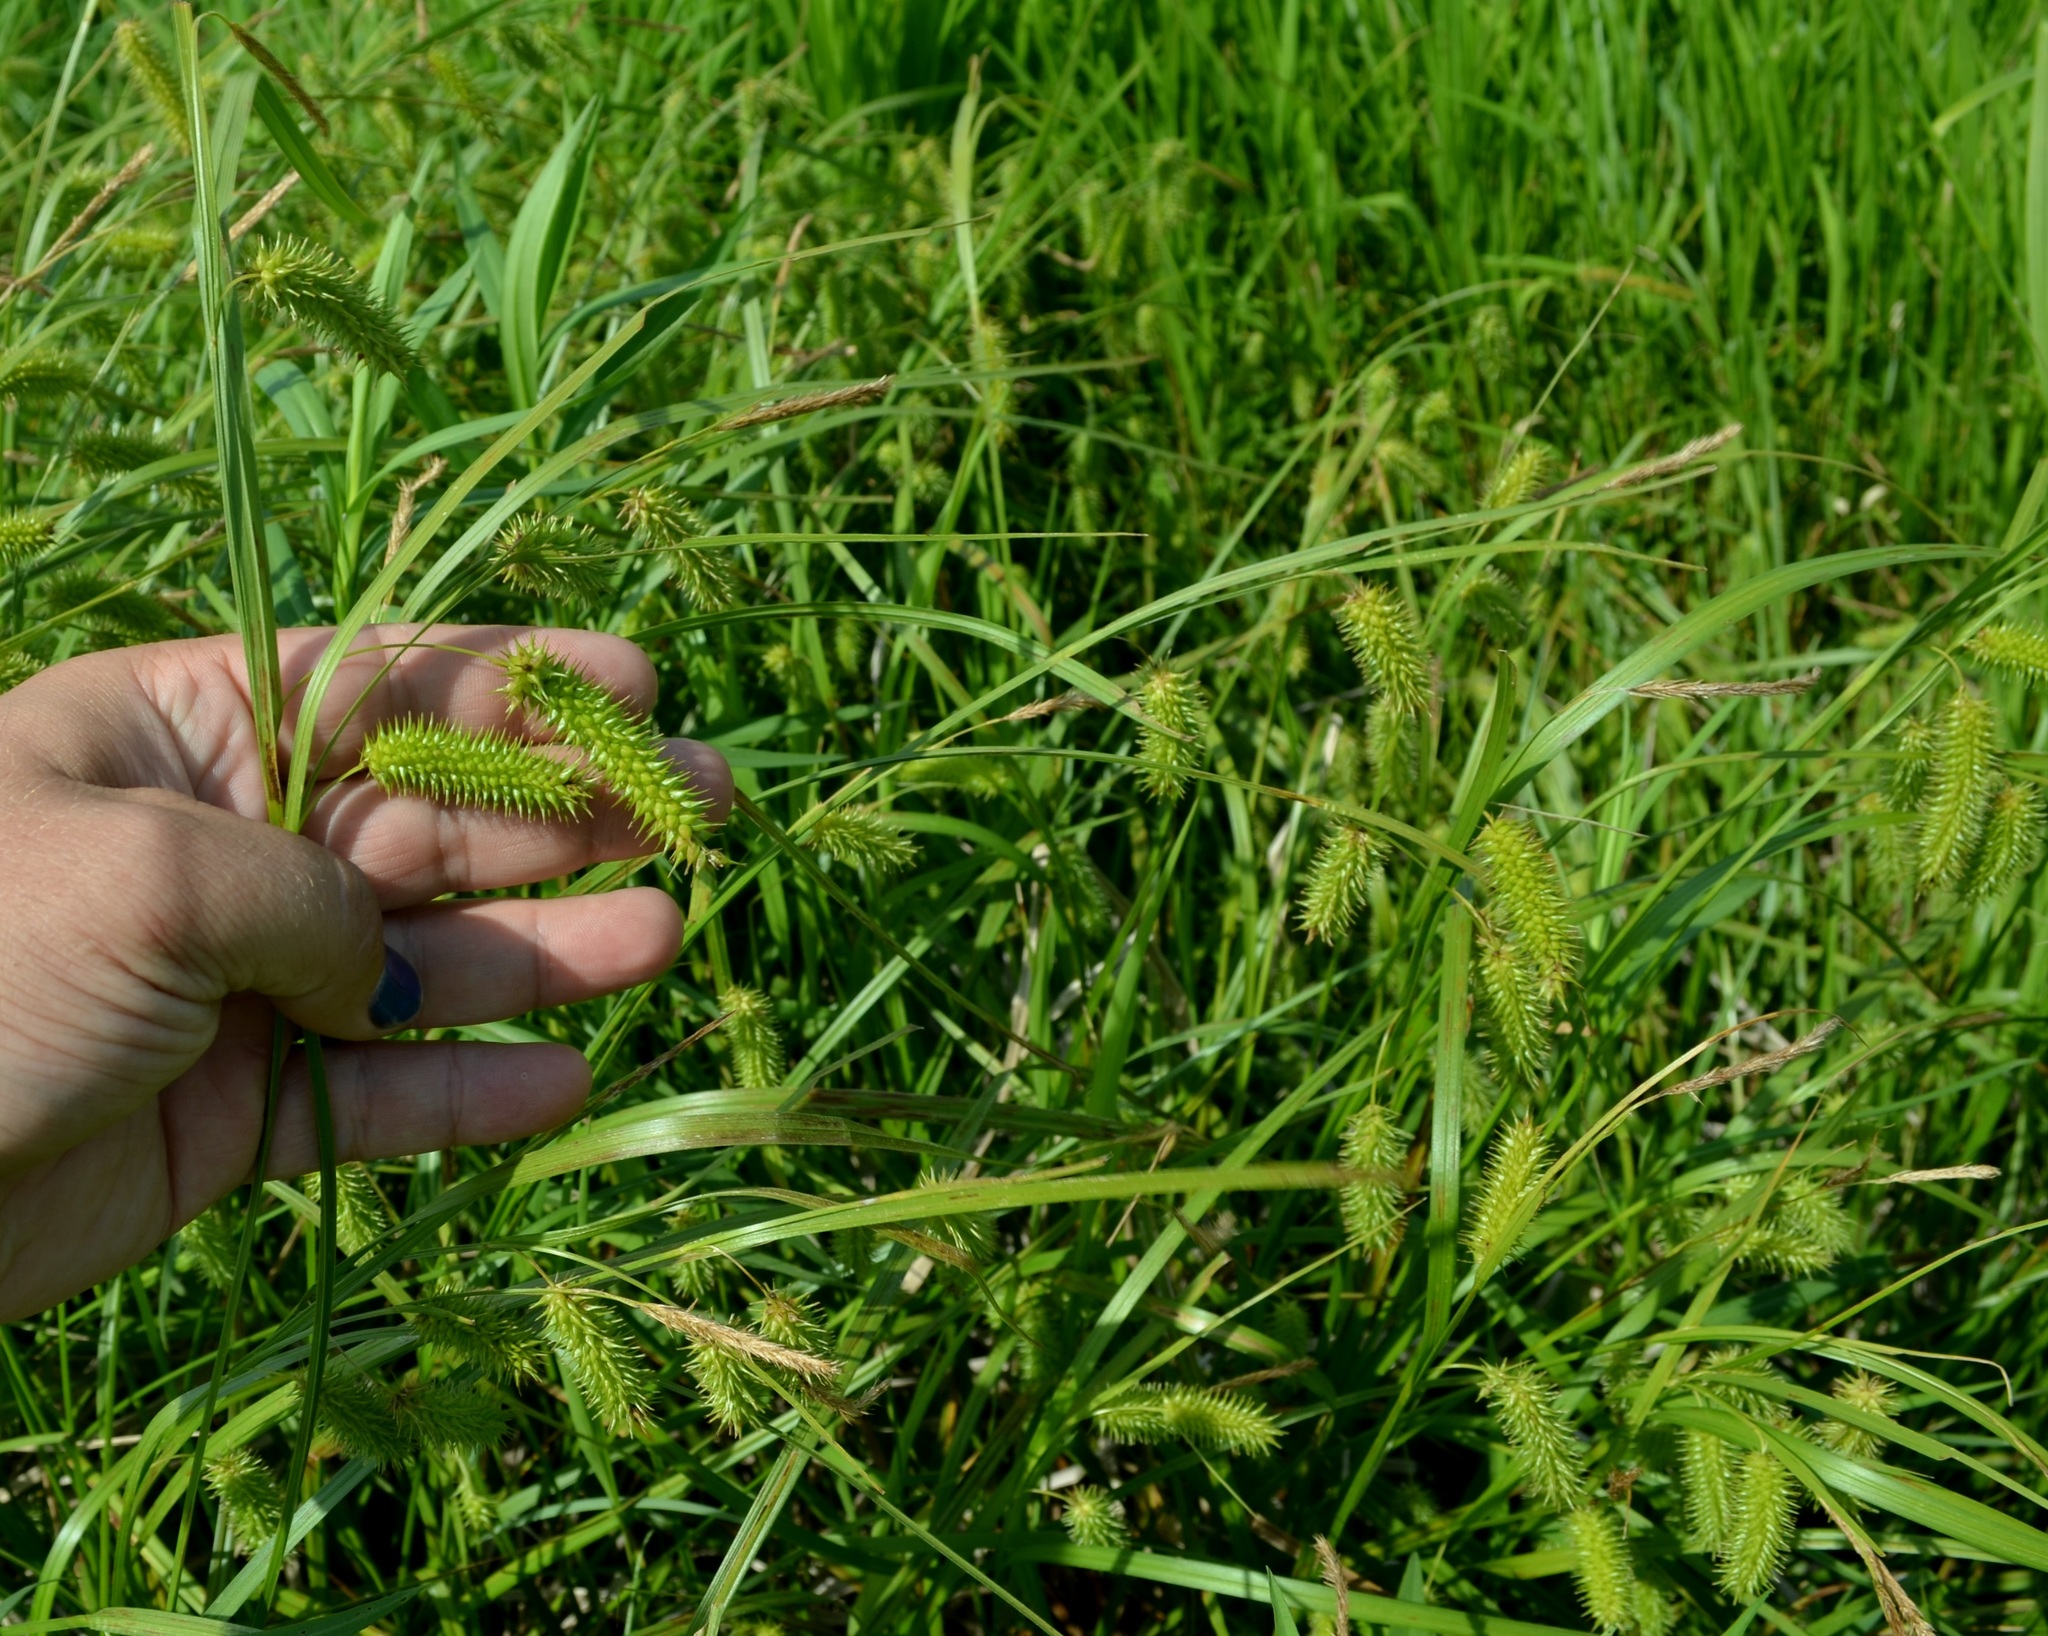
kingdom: Plantae
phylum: Tracheophyta
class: Liliopsida
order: Poales
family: Cyperaceae
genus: Carex
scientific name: Carex comosa
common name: Bristly sedge
